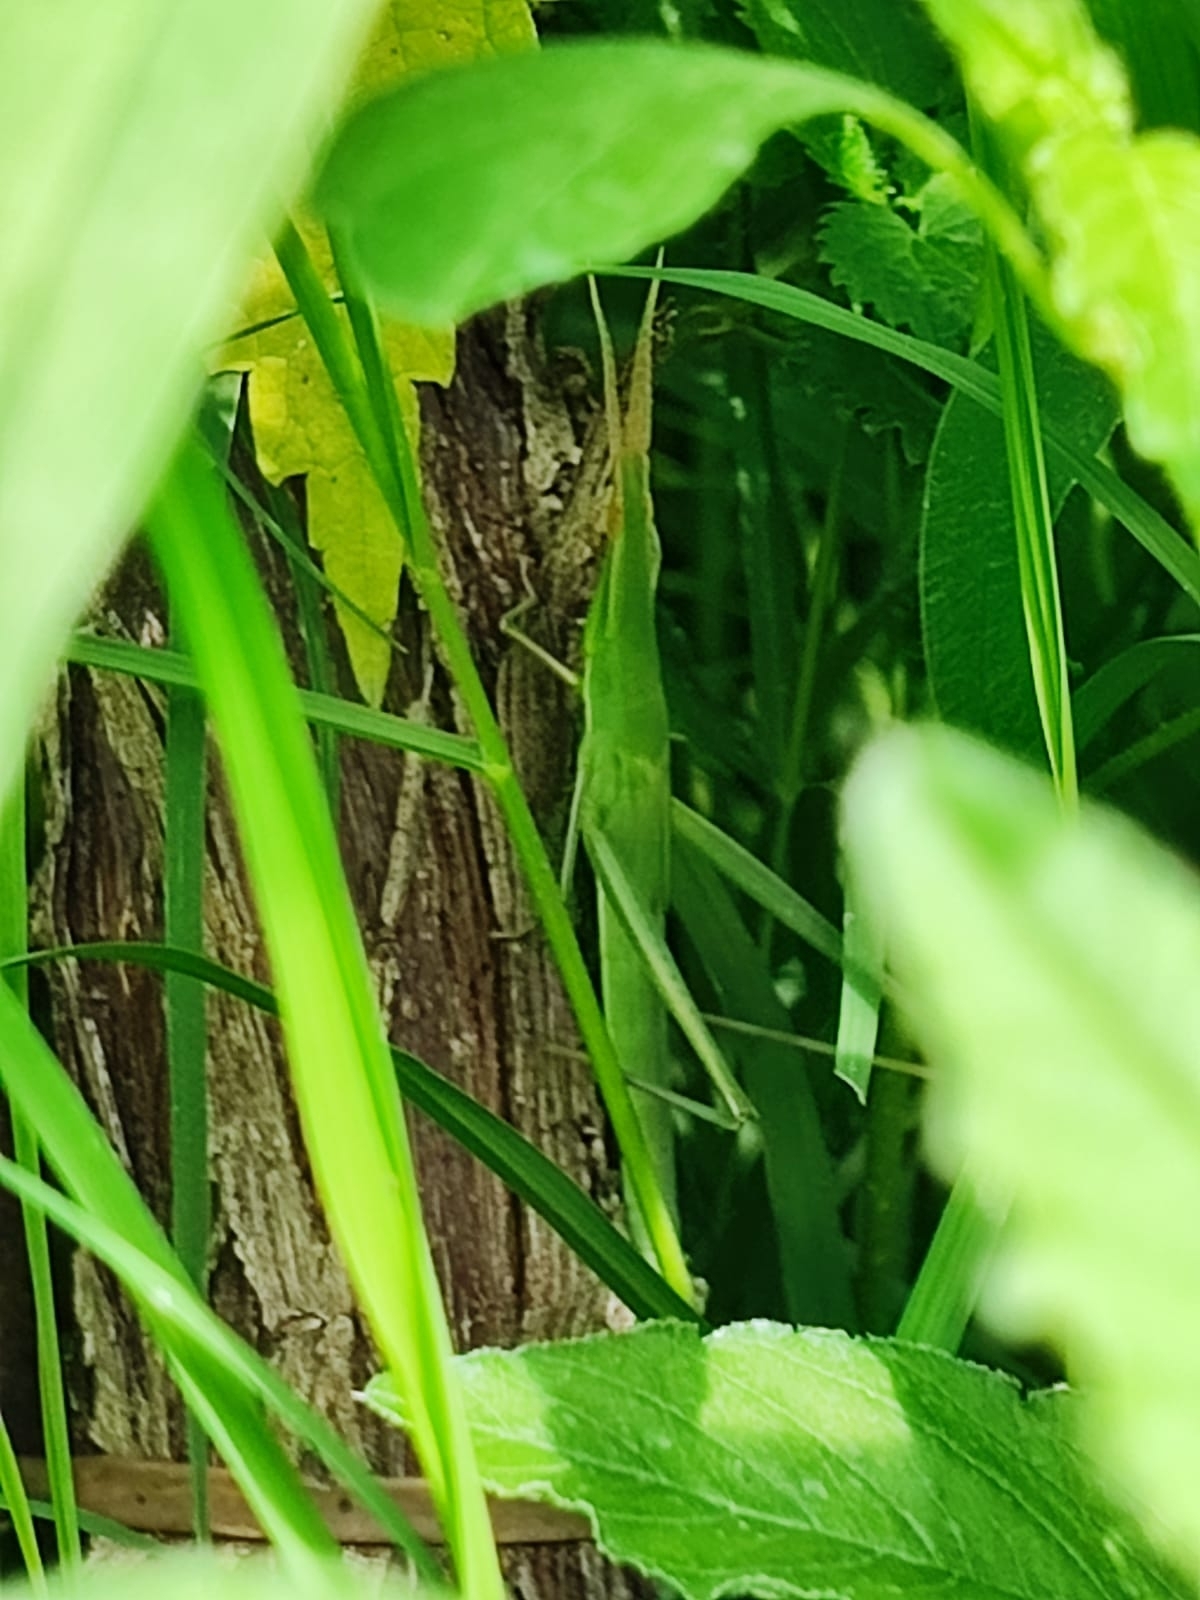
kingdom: Animalia
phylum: Arthropoda
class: Insecta
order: Orthoptera
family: Acrididae
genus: Acrida
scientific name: Acrida ungarica
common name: Common cone-headed grasshopper
